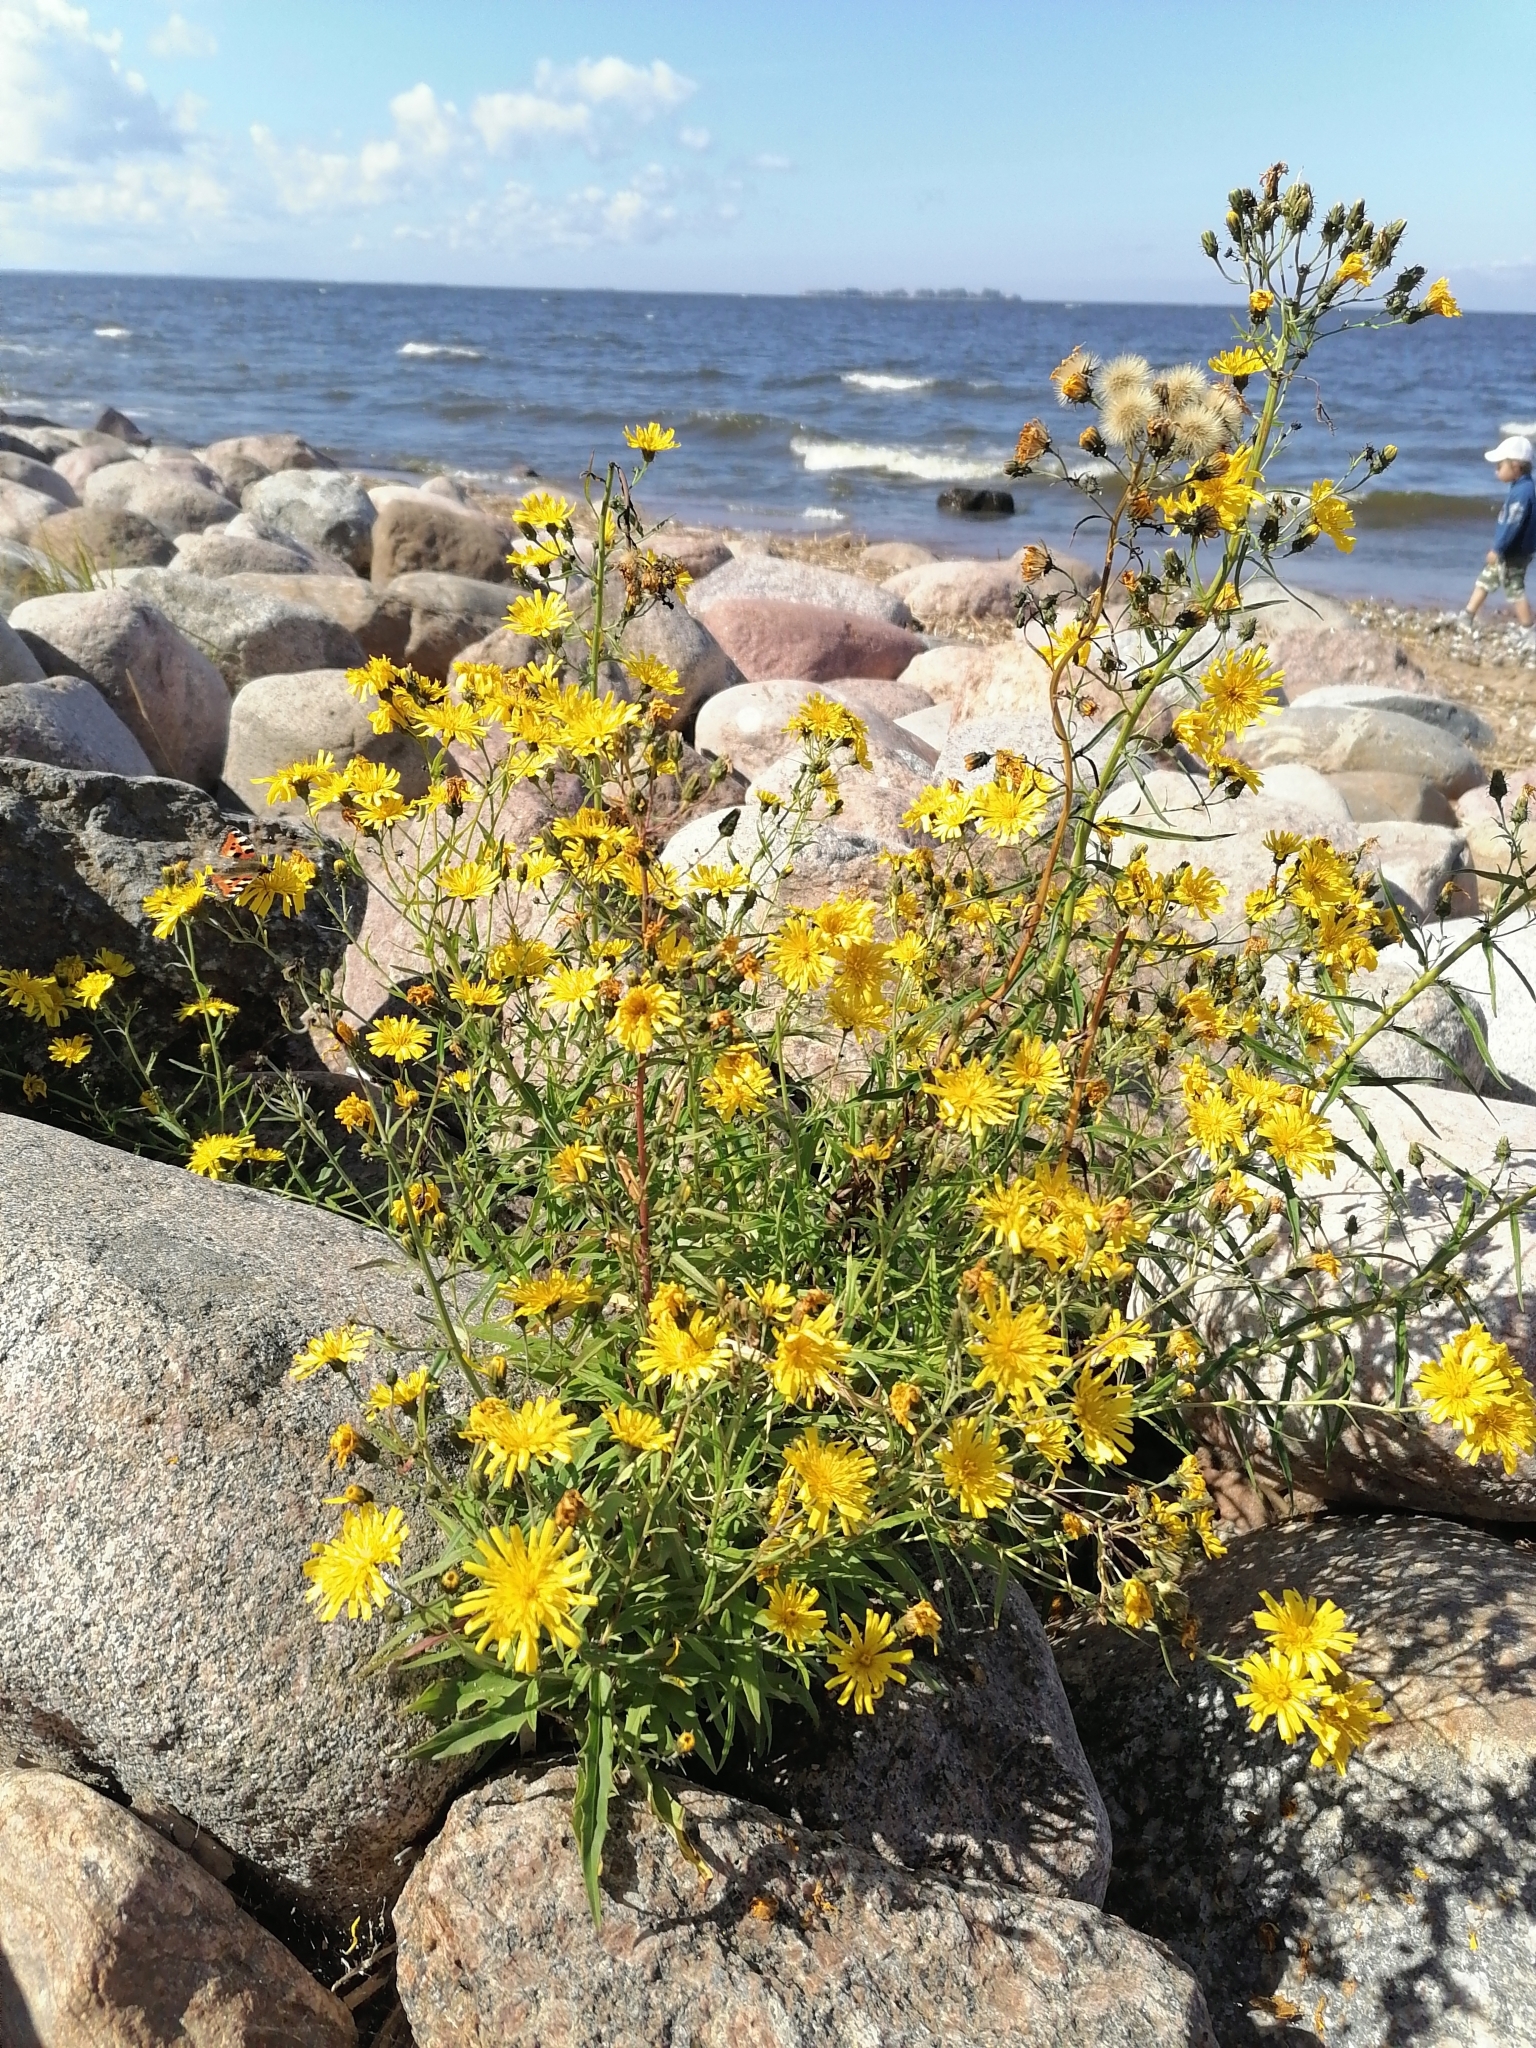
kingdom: Plantae
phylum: Tracheophyta
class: Magnoliopsida
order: Asterales
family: Asteraceae
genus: Hieracium
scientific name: Hieracium umbellatum
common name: Northern hawkweed
